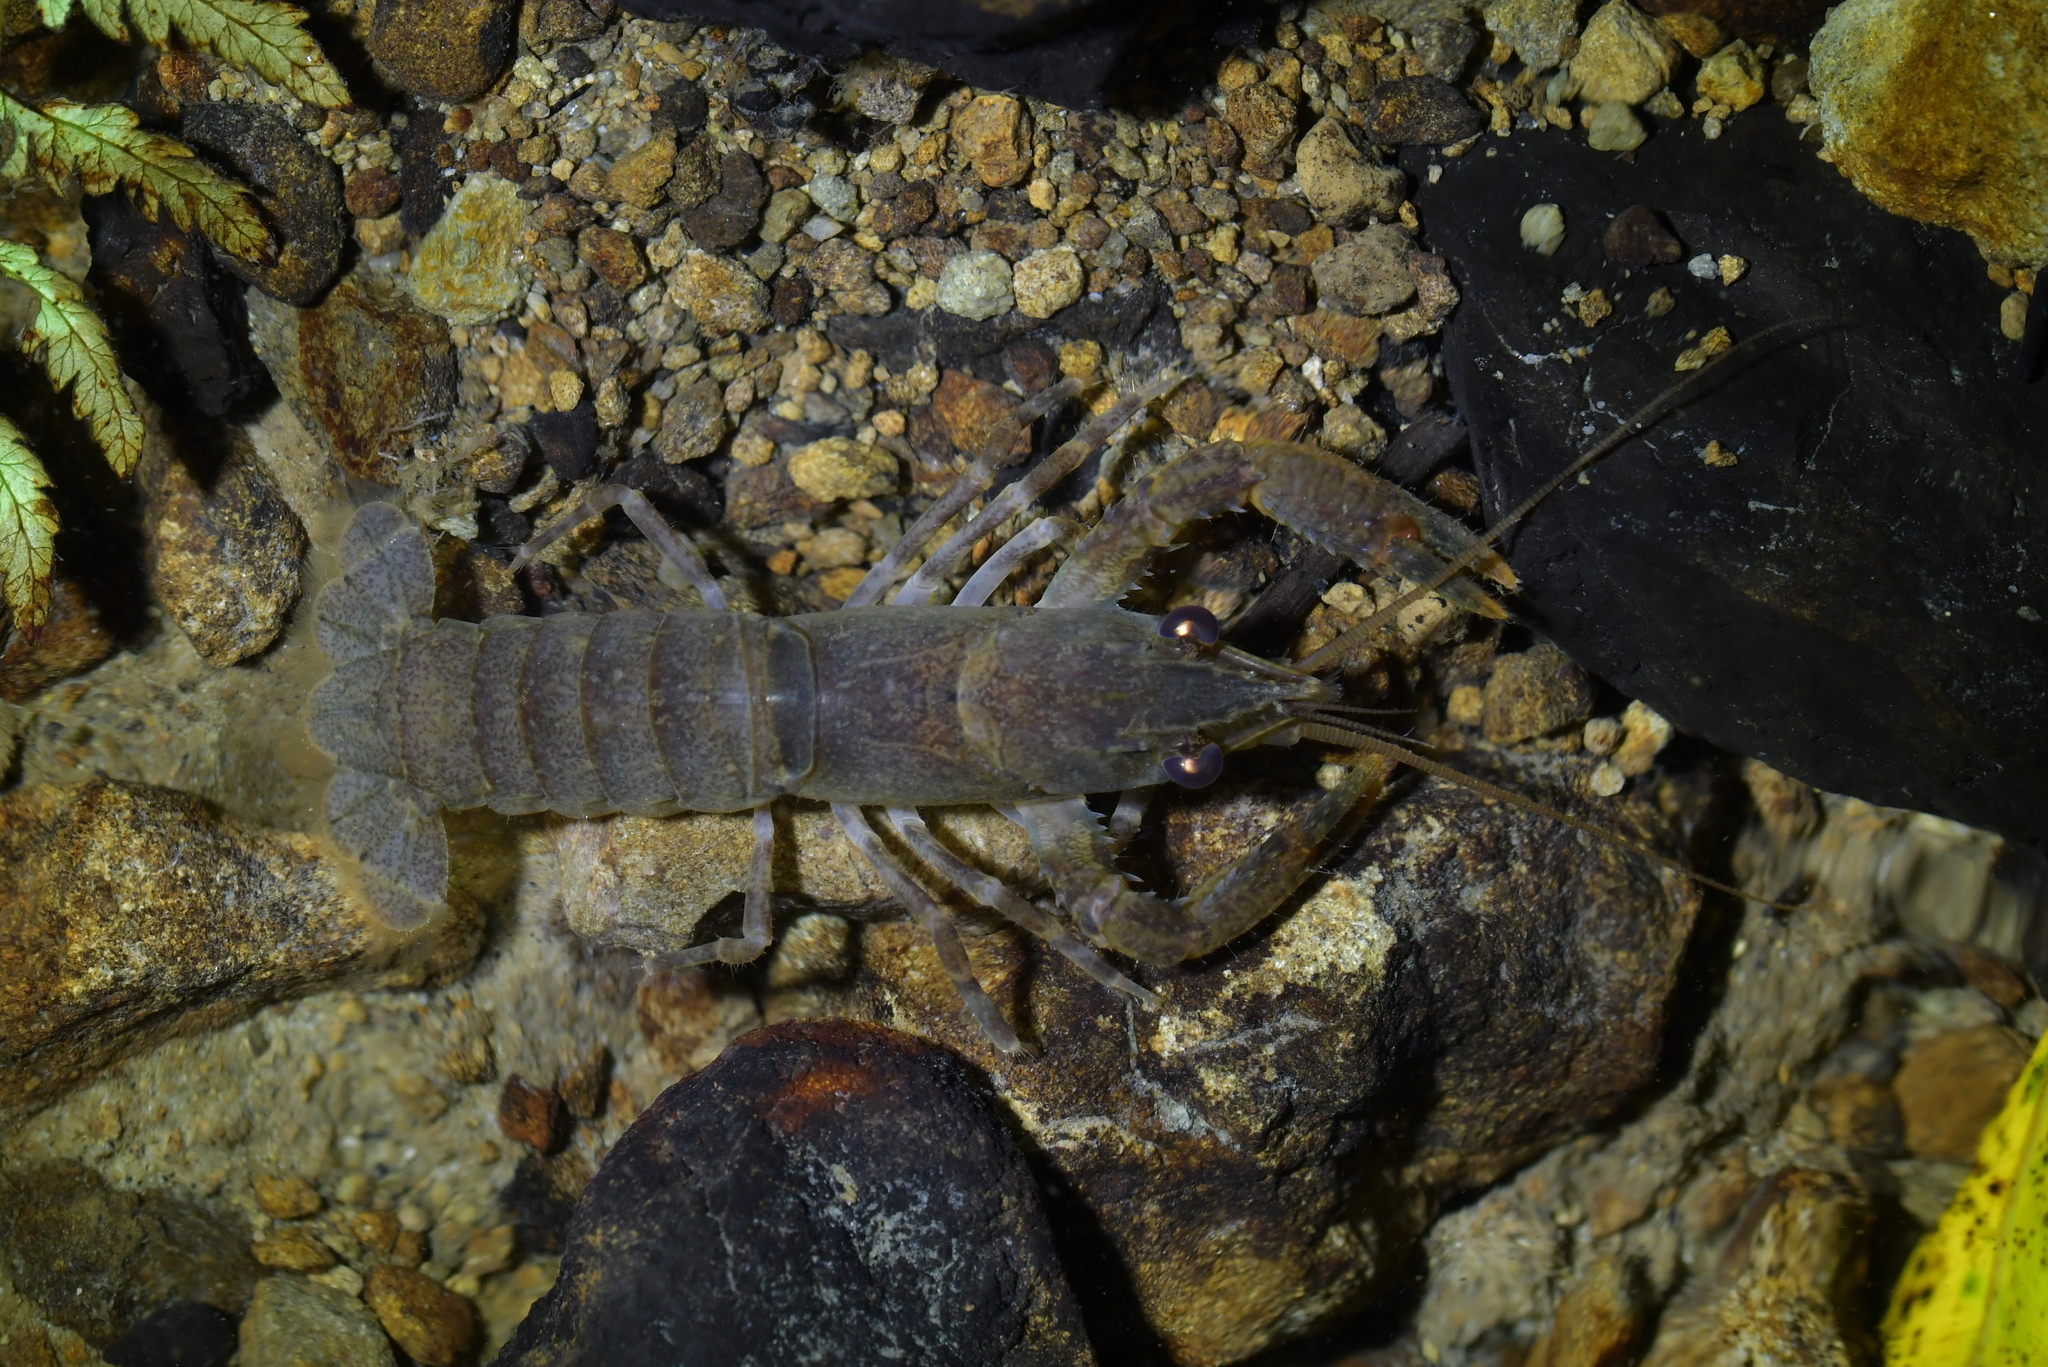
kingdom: Animalia
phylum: Arthropoda
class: Malacostraca
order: Decapoda
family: Parastacidae
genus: Paranephrops
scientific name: Paranephrops planifrons
